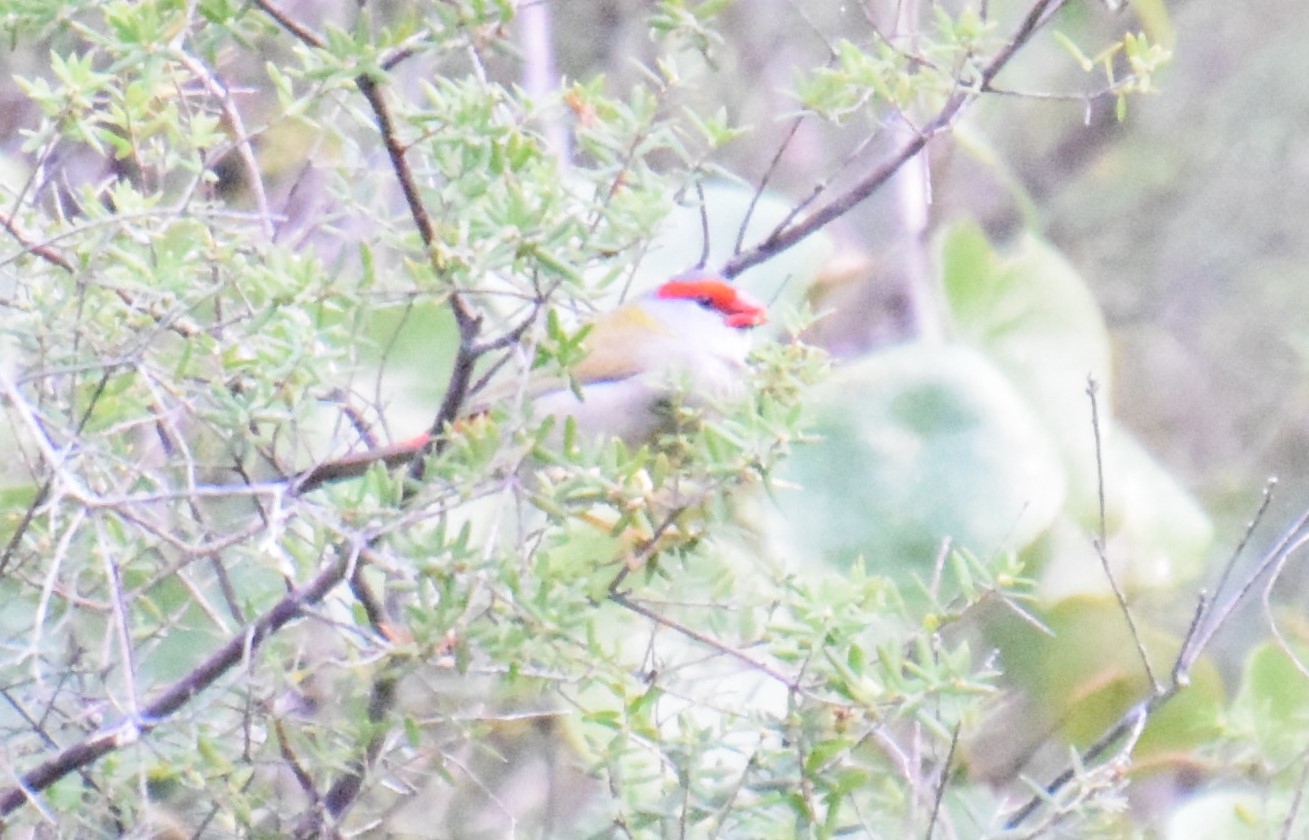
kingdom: Animalia
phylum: Chordata
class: Aves
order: Passeriformes
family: Estrildidae
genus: Neochmia
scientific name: Neochmia temporalis
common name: Red-browed finch
